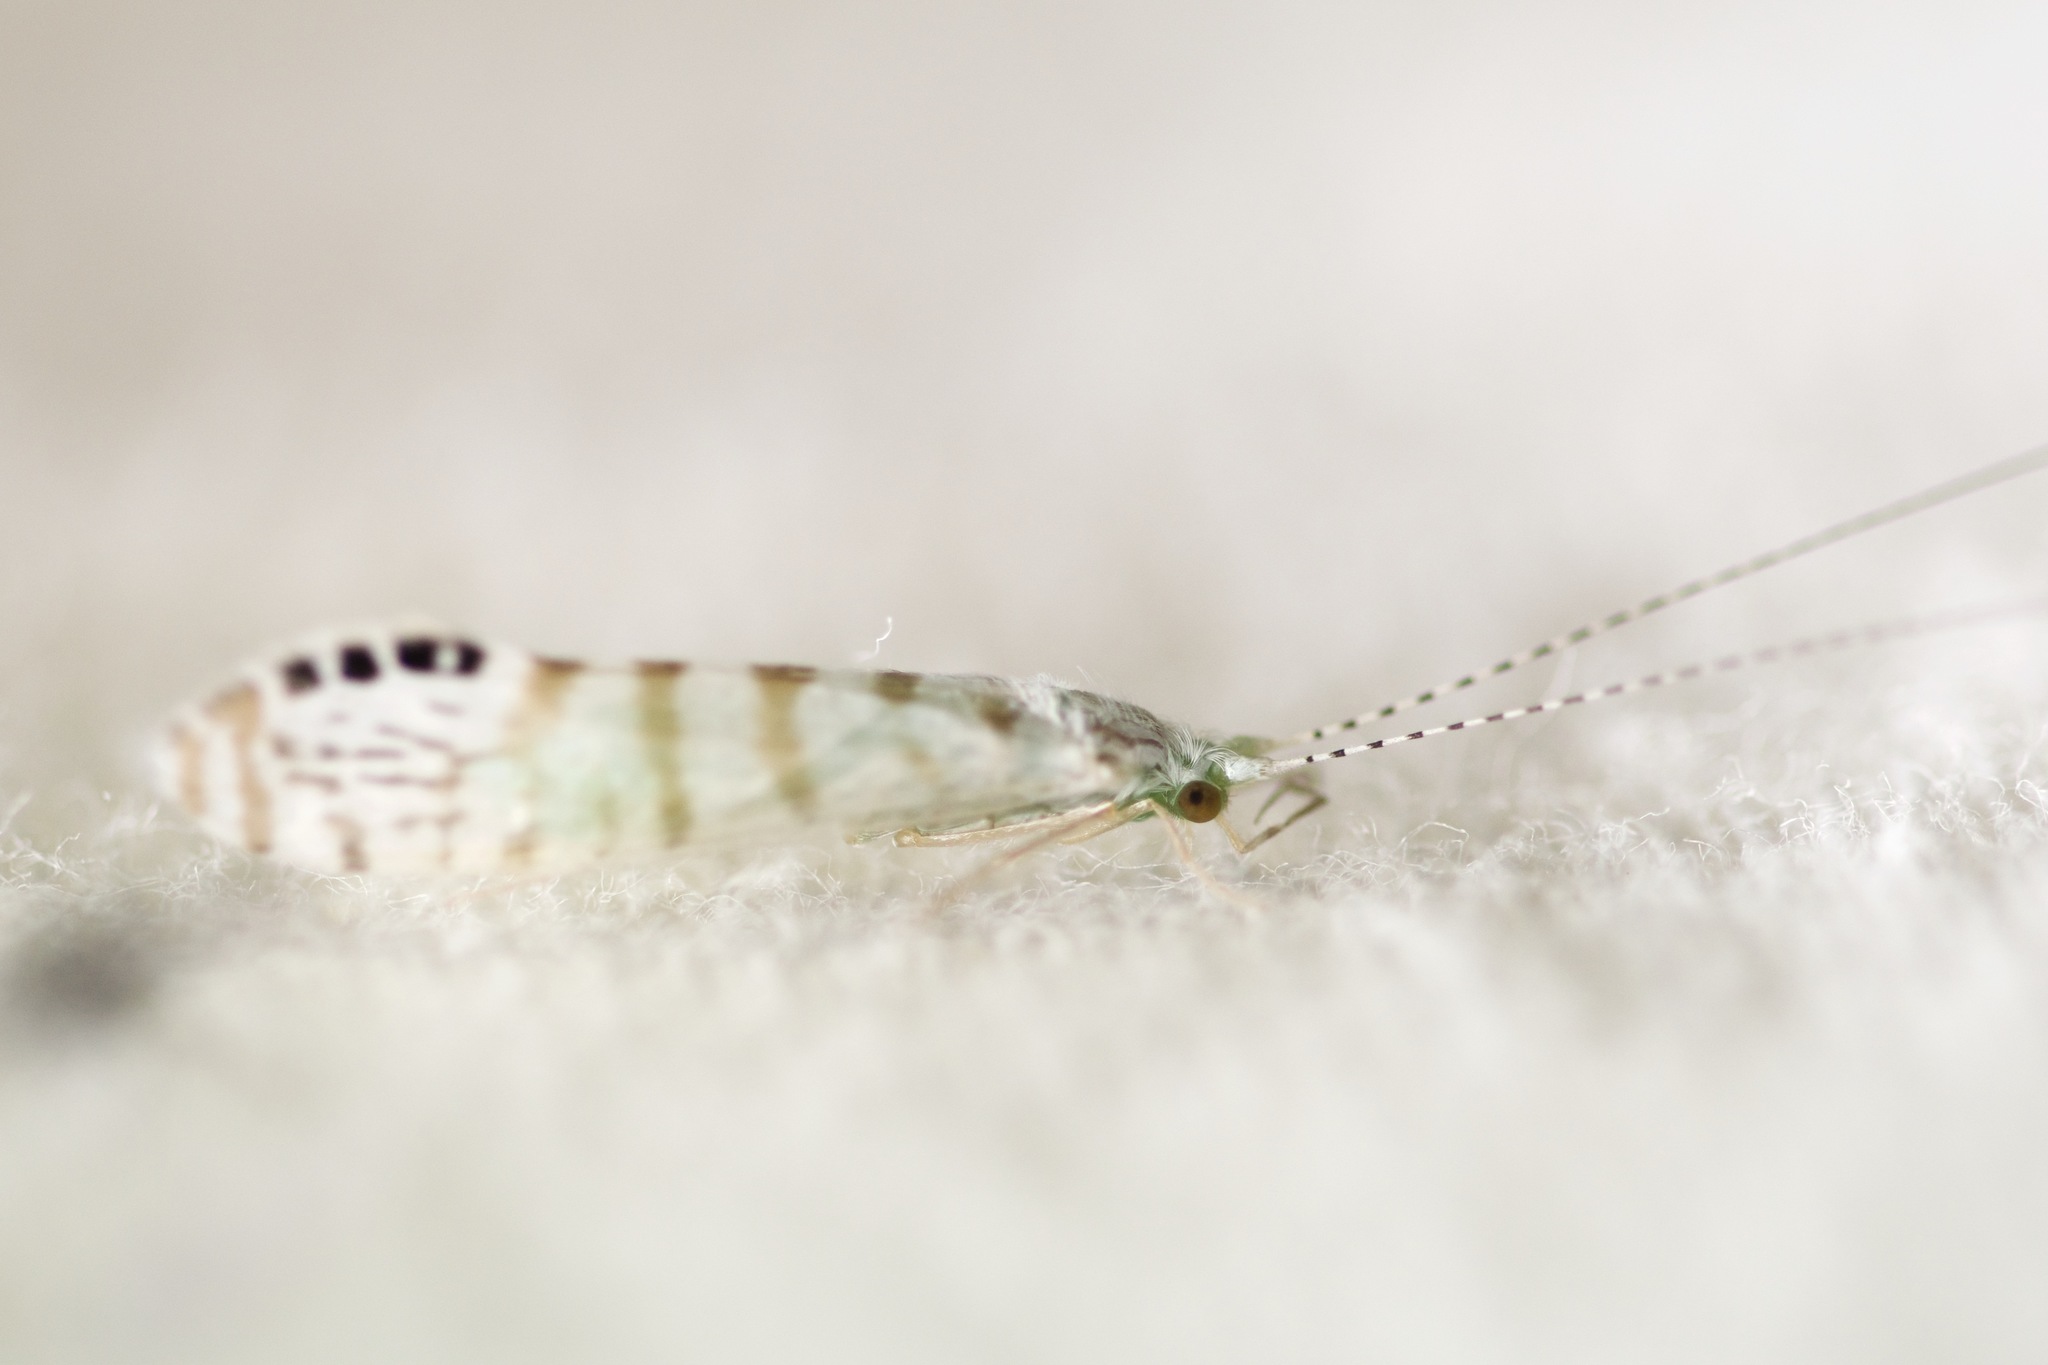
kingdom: Animalia
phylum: Arthropoda
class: Insecta
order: Trichoptera
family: Leptoceridae
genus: Nectopsyche
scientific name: Nectopsyche exquisita
